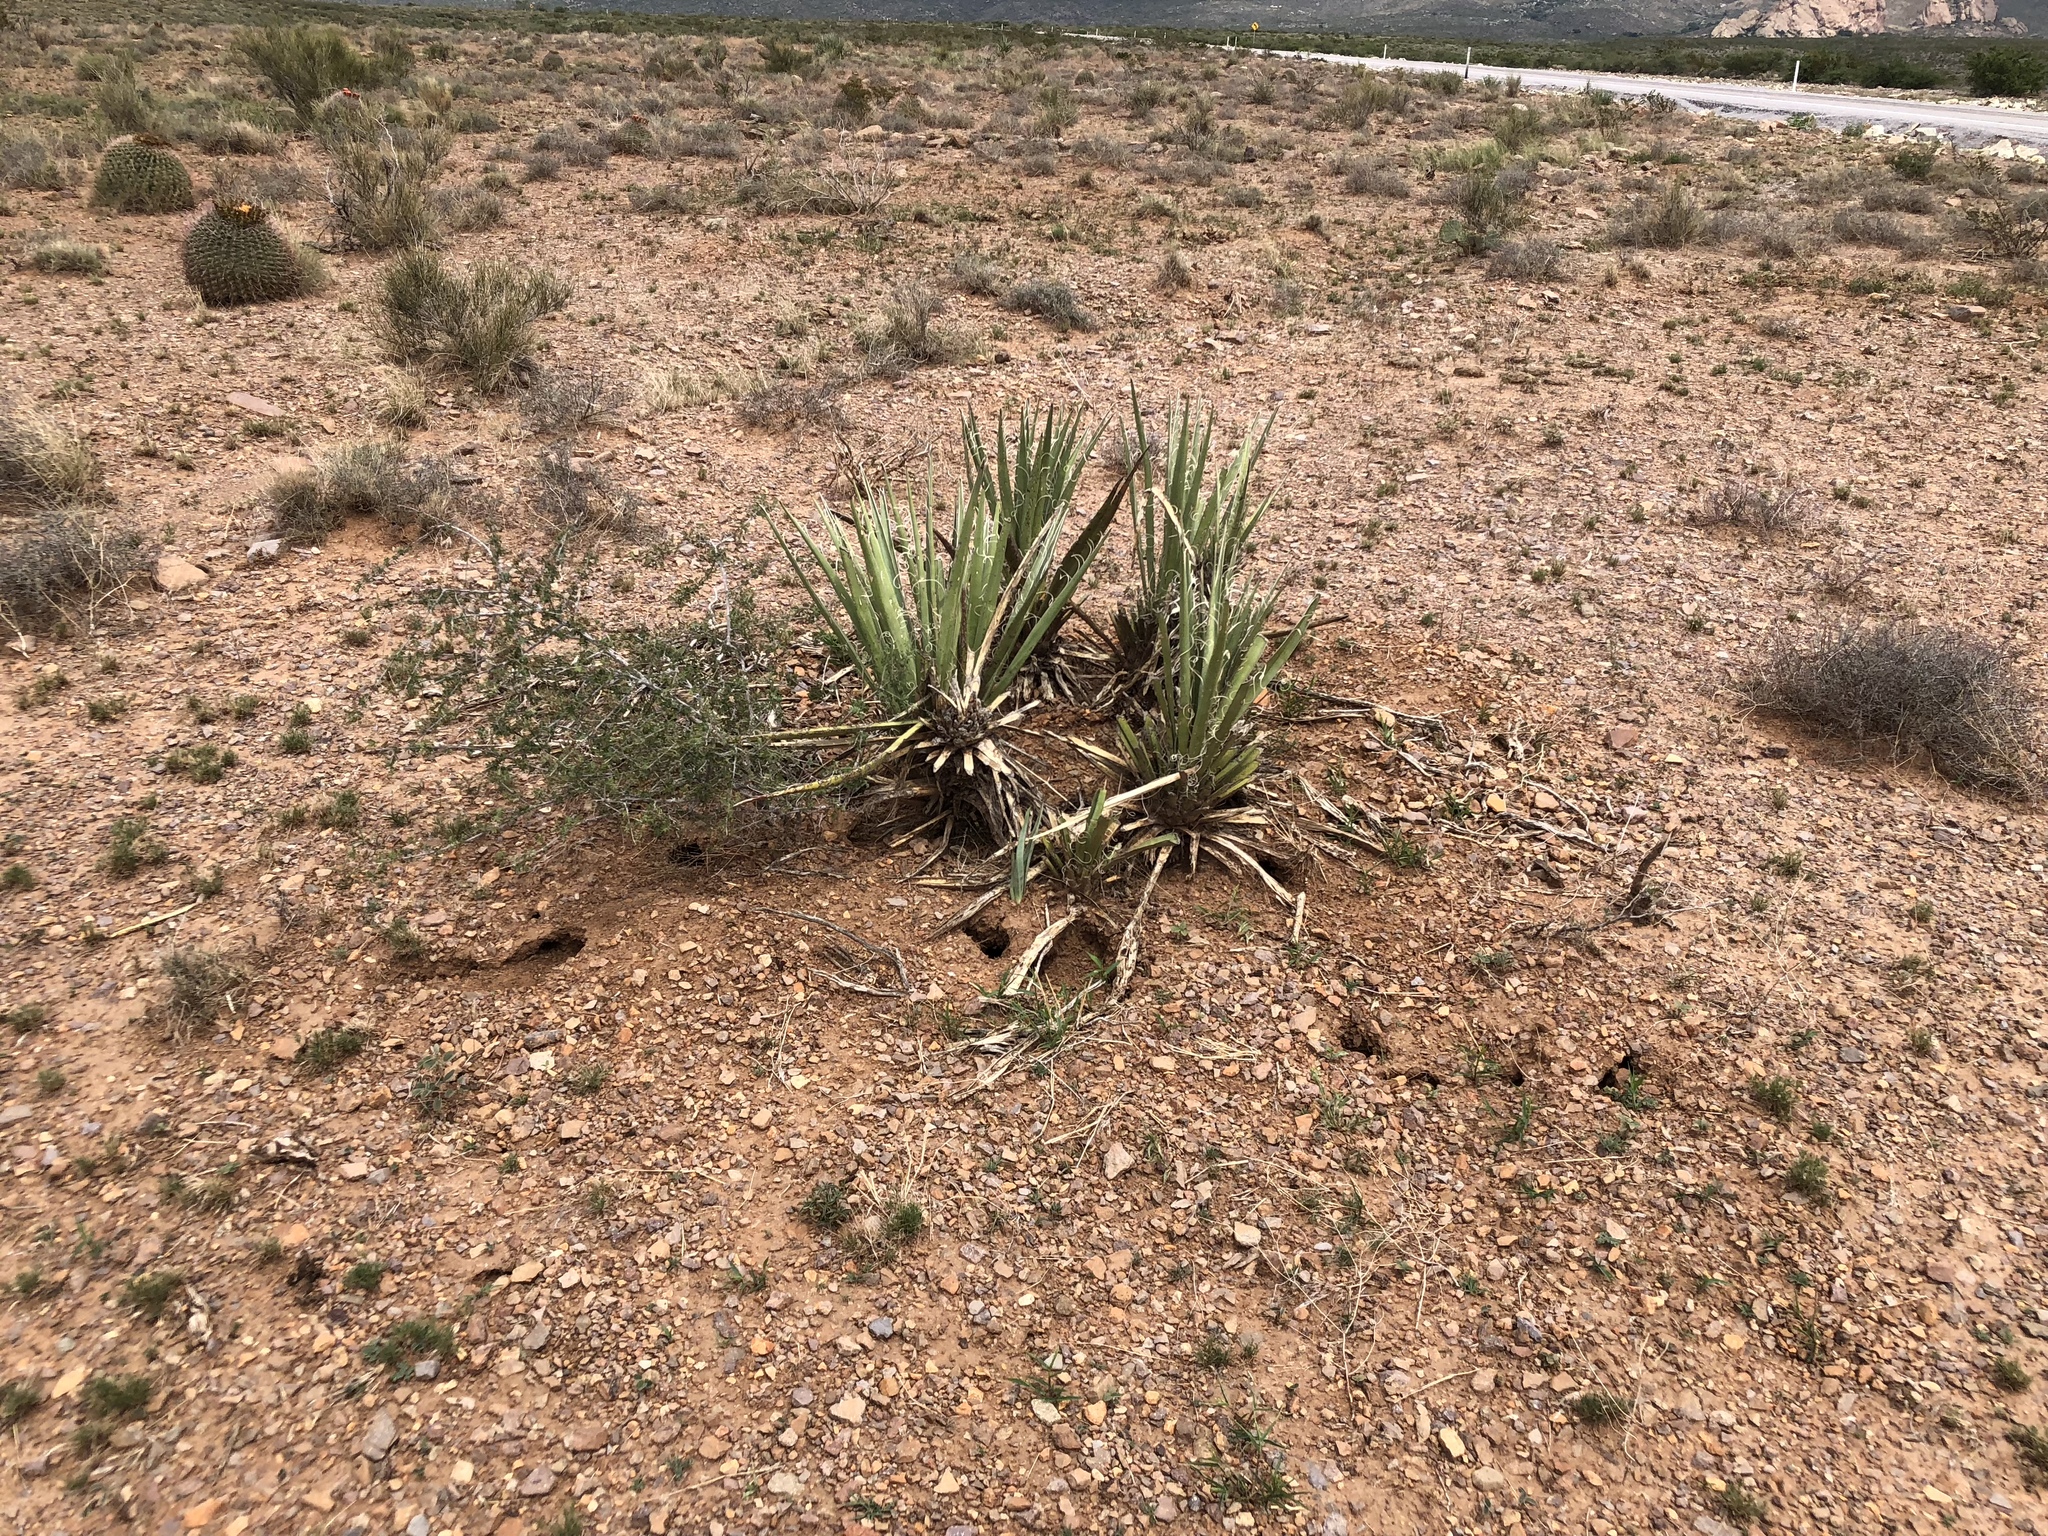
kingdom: Plantae
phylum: Tracheophyta
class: Liliopsida
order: Asparagales
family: Asparagaceae
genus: Yucca
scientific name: Yucca baccata
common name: Banana yucca
